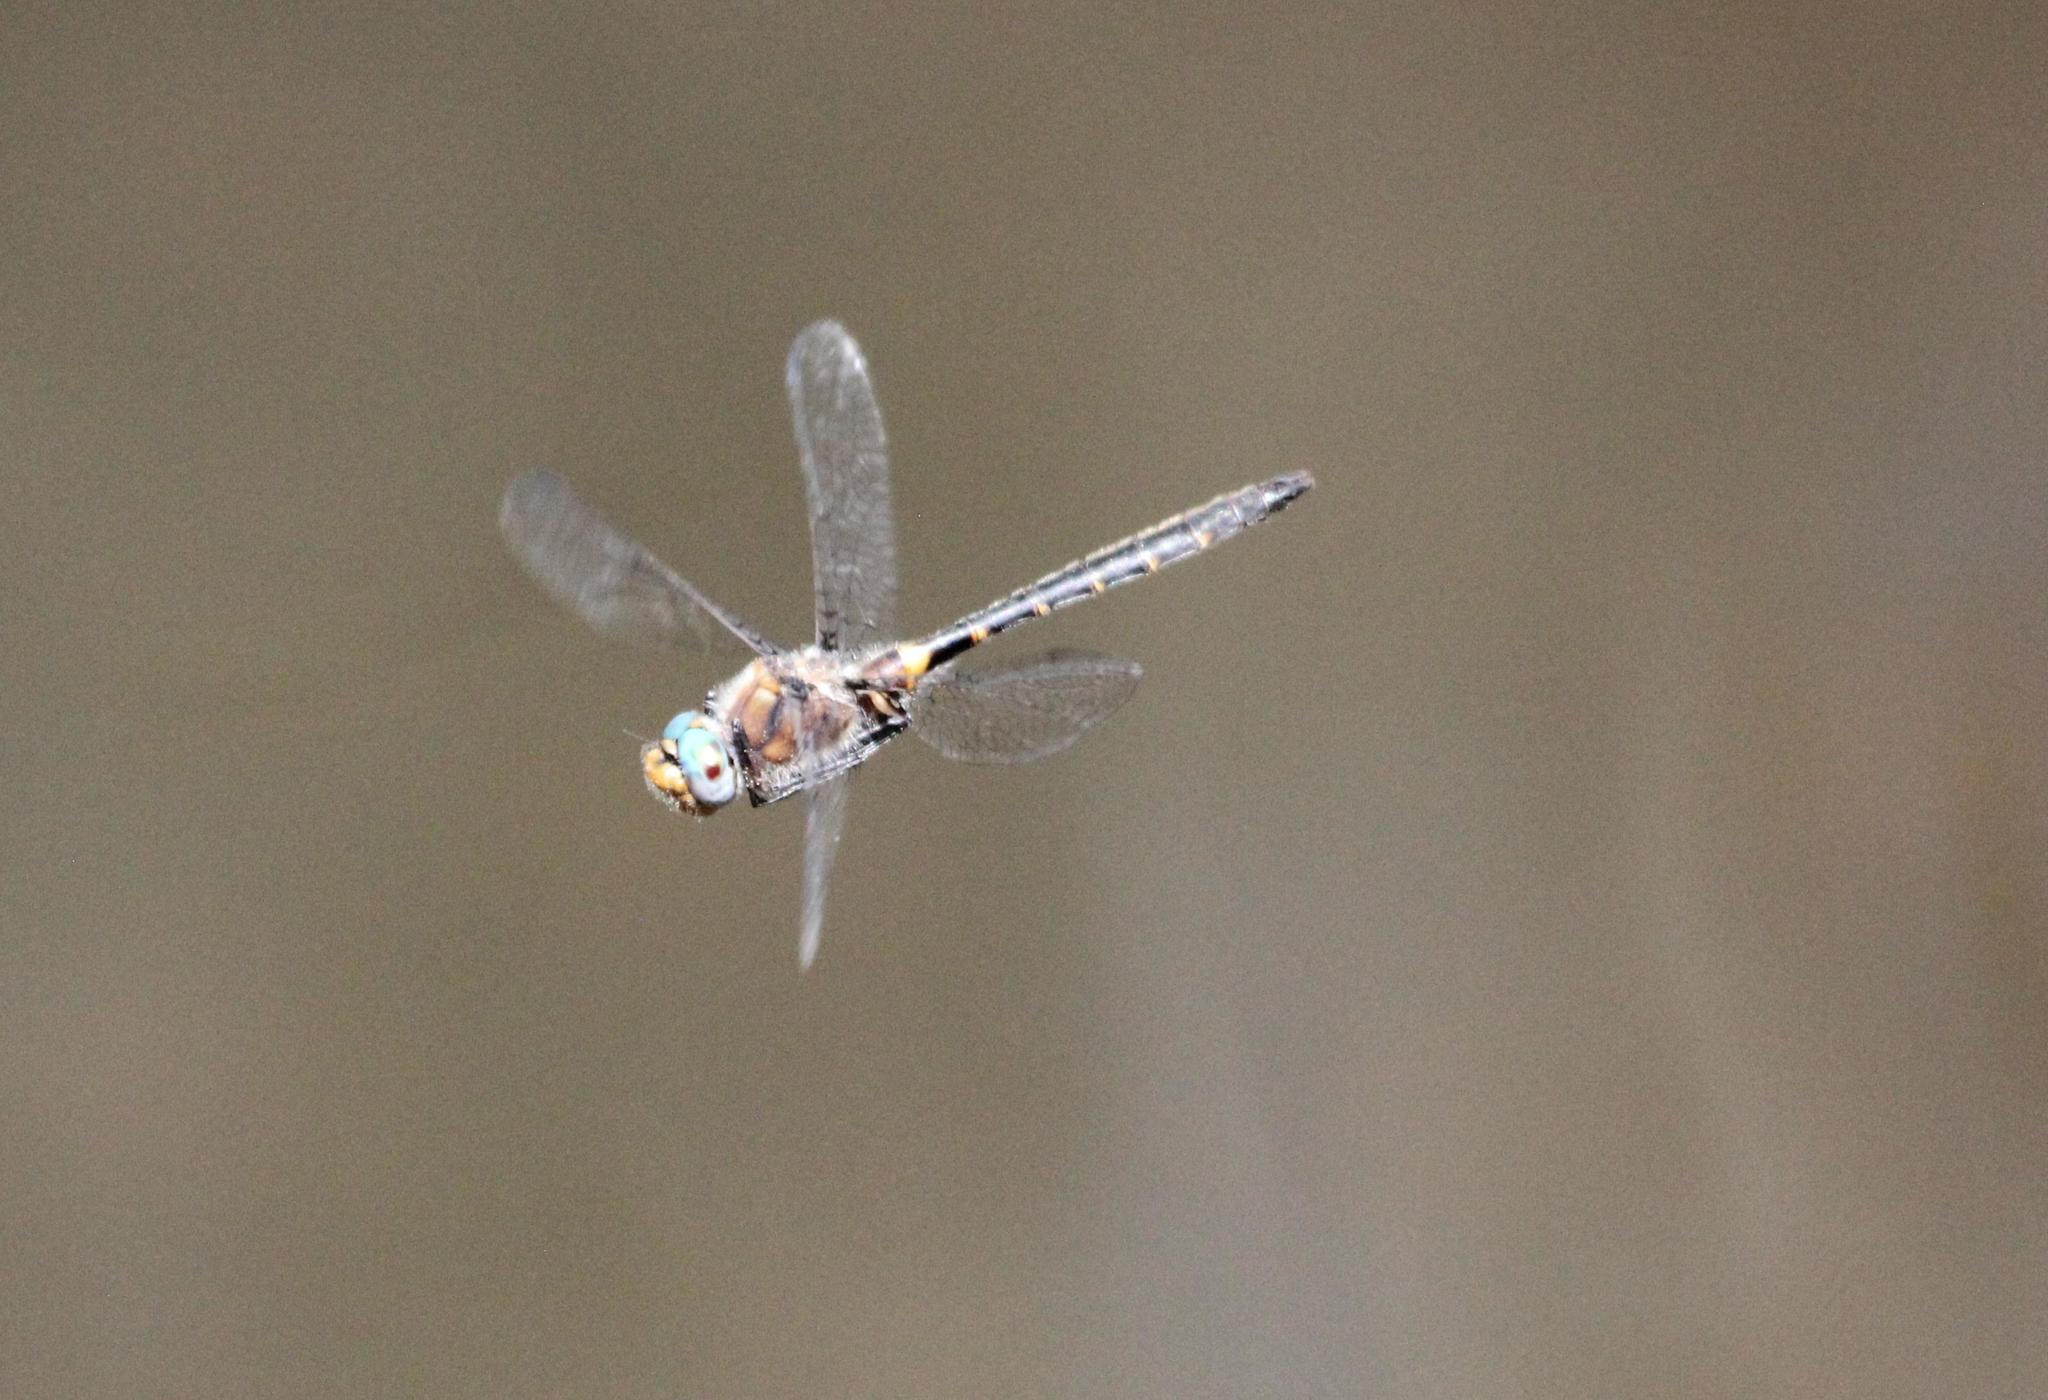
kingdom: Animalia
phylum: Arthropoda
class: Insecta
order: Odonata
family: Corduliidae
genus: Helocordulia
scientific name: Helocordulia selysii
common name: Selys's sundragon
